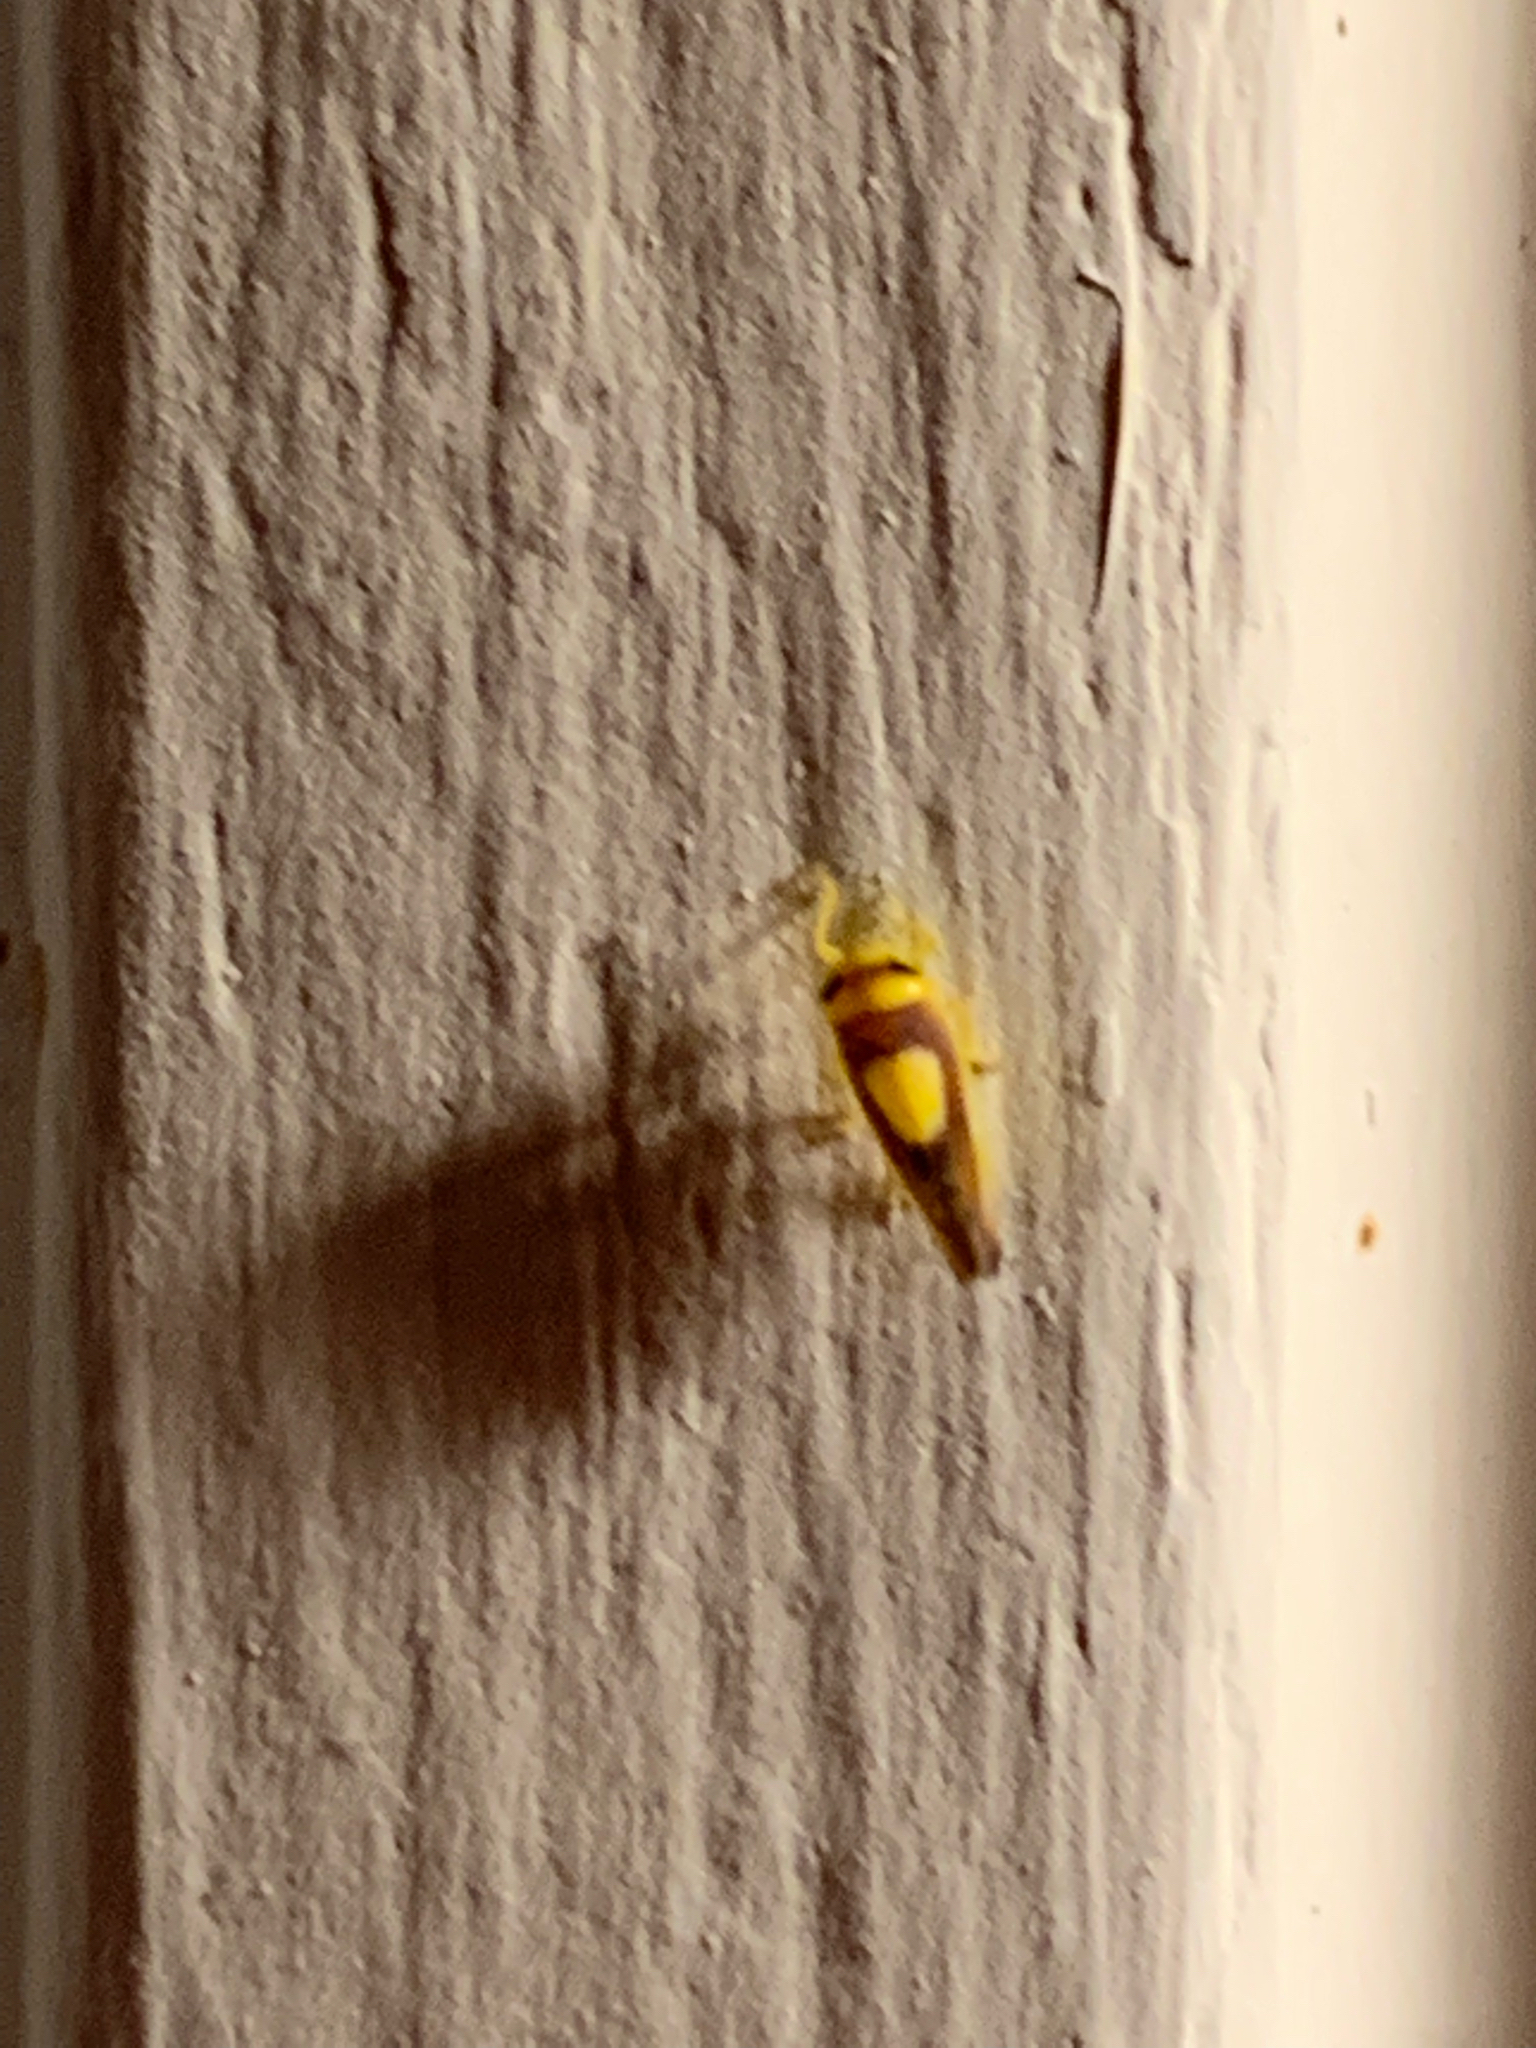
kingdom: Animalia
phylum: Arthropoda
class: Insecta
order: Hemiptera
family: Cicadellidae
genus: Colladonus
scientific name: Colladonus clitellarius
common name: The saddleback leafhopper
